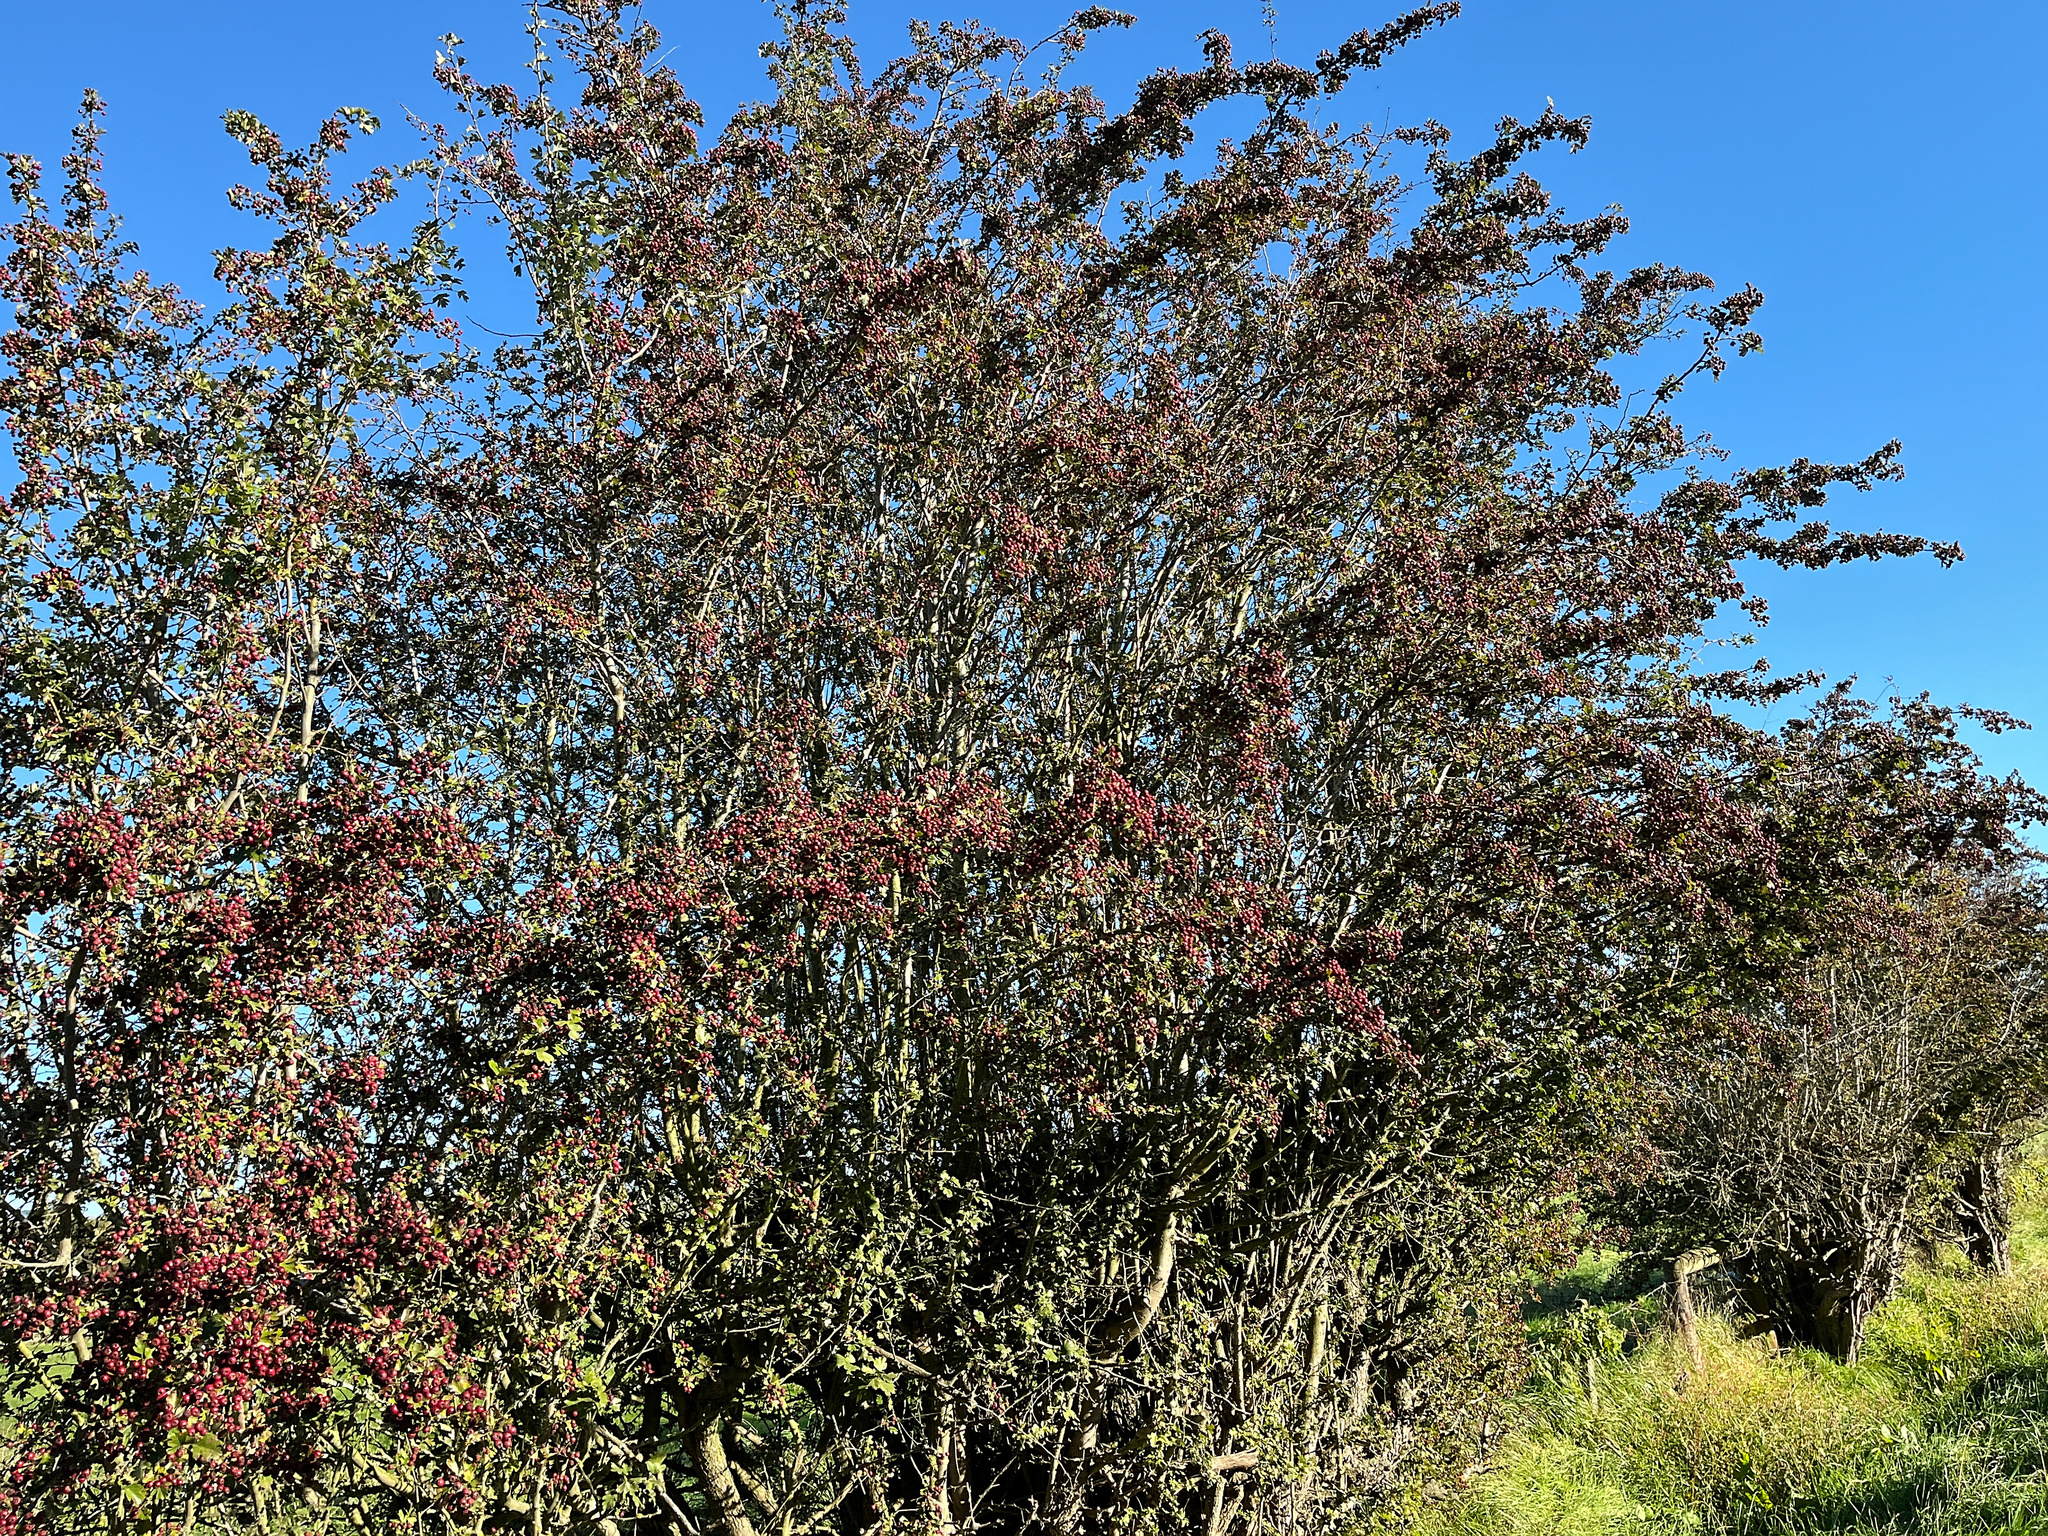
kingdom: Plantae
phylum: Tracheophyta
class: Magnoliopsida
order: Rosales
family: Rosaceae
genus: Crataegus
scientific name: Crataegus monogyna
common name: Hawthorn
